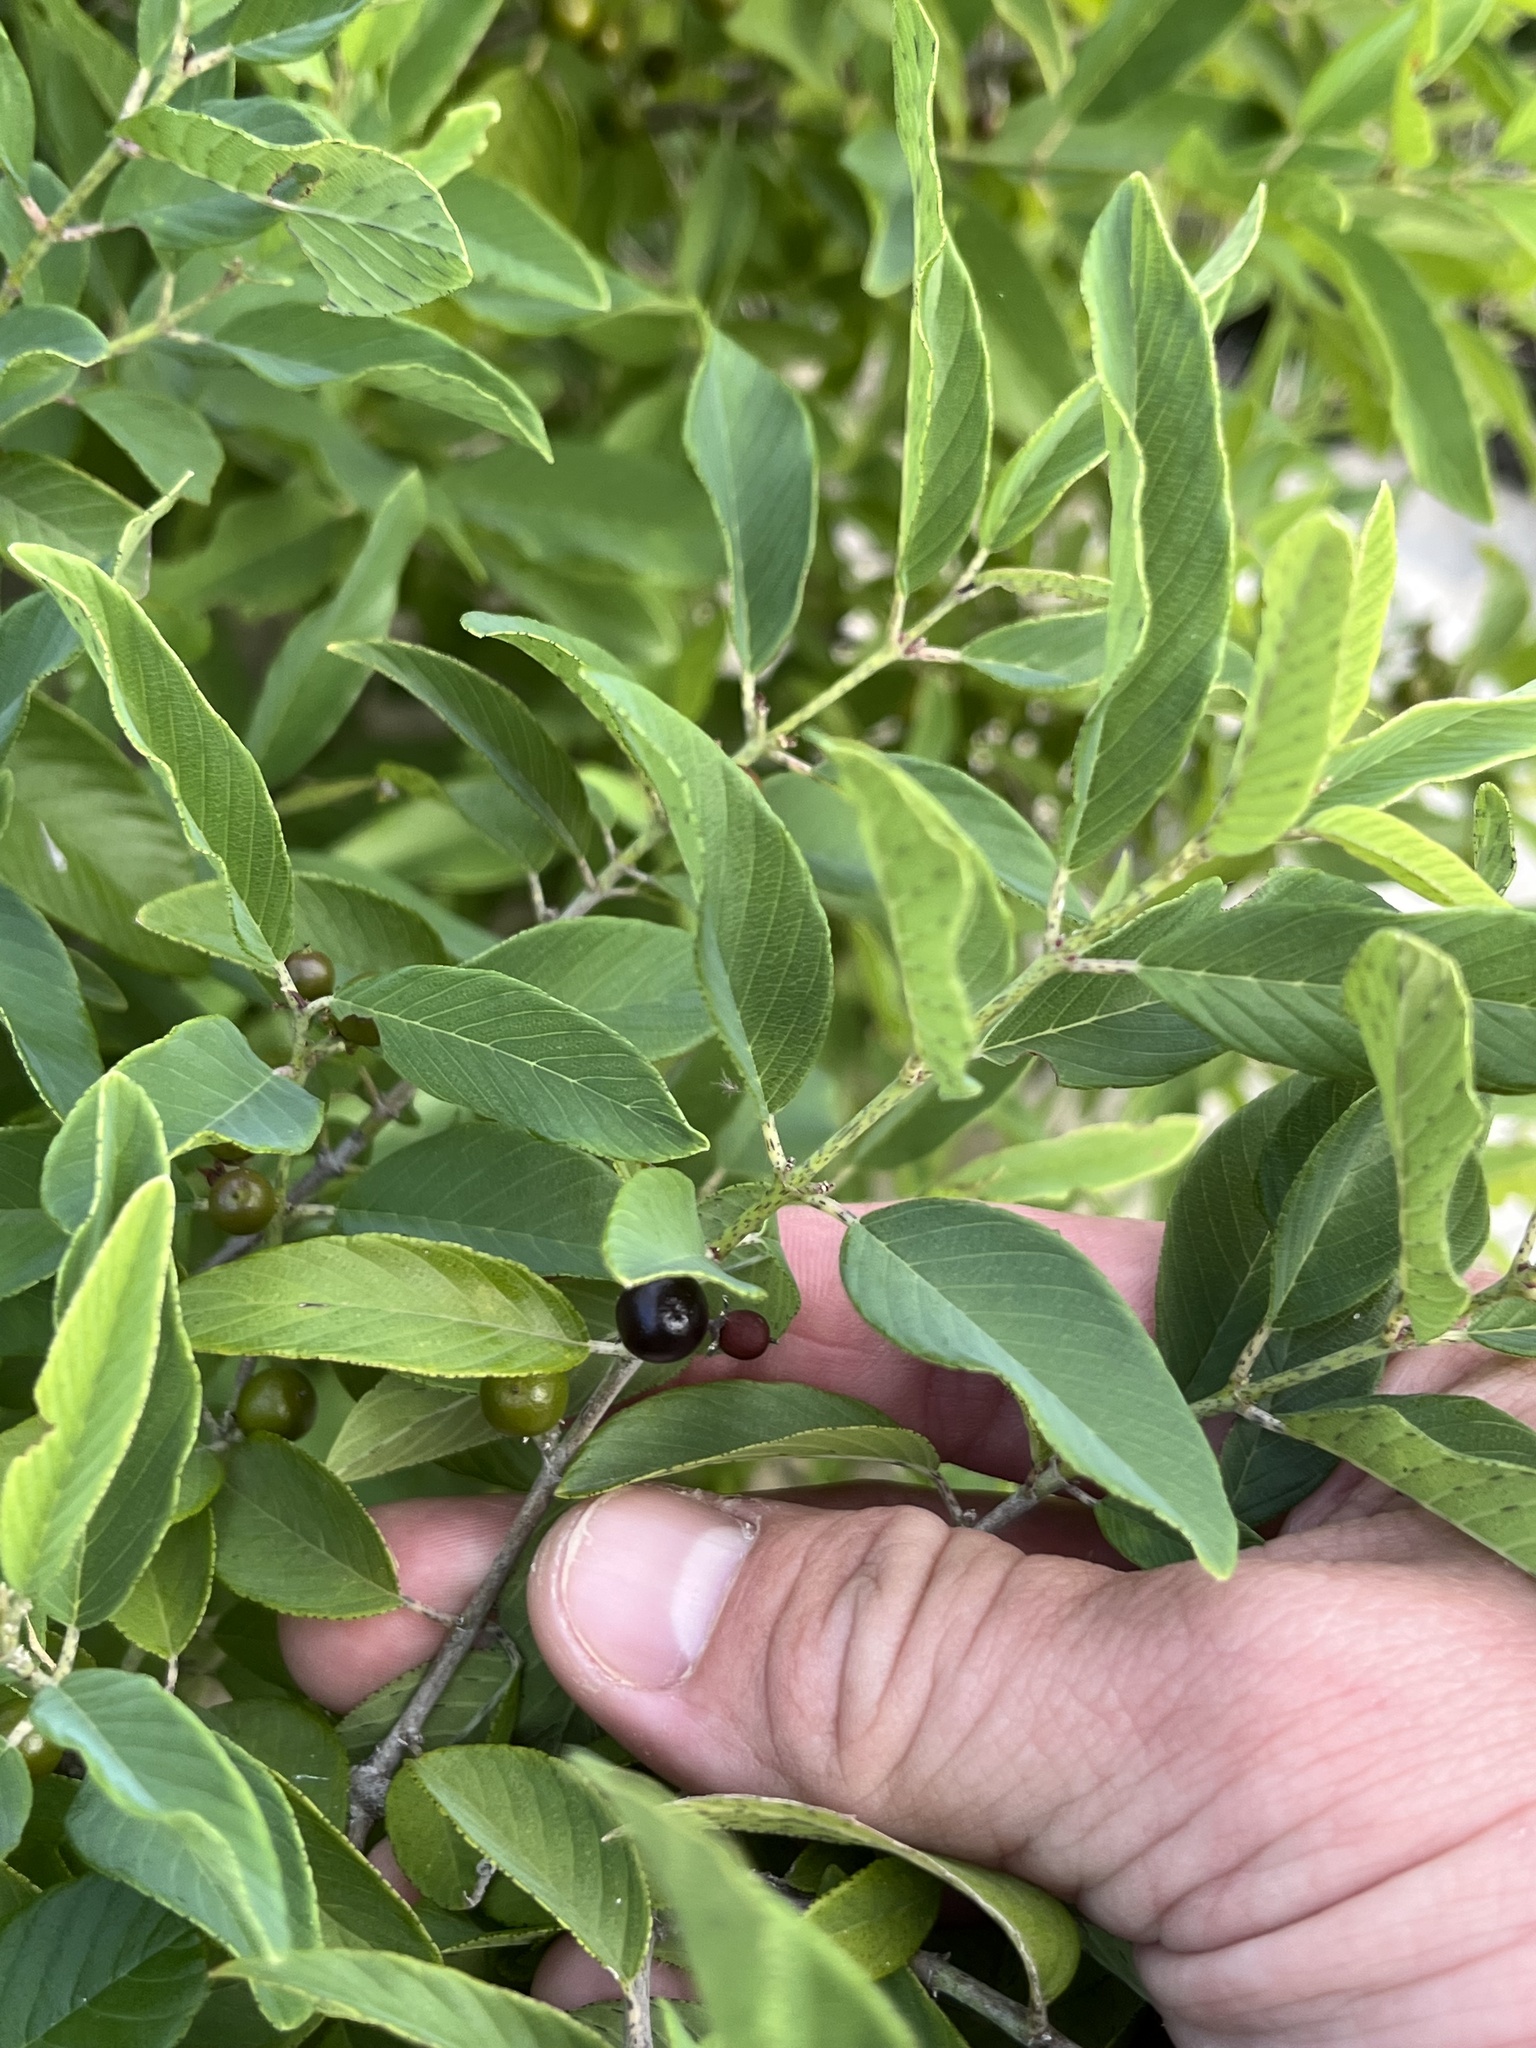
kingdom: Plantae
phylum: Tracheophyta
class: Magnoliopsida
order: Rosales
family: Rhamnaceae
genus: Karwinskia
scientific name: Karwinskia humboldtiana
